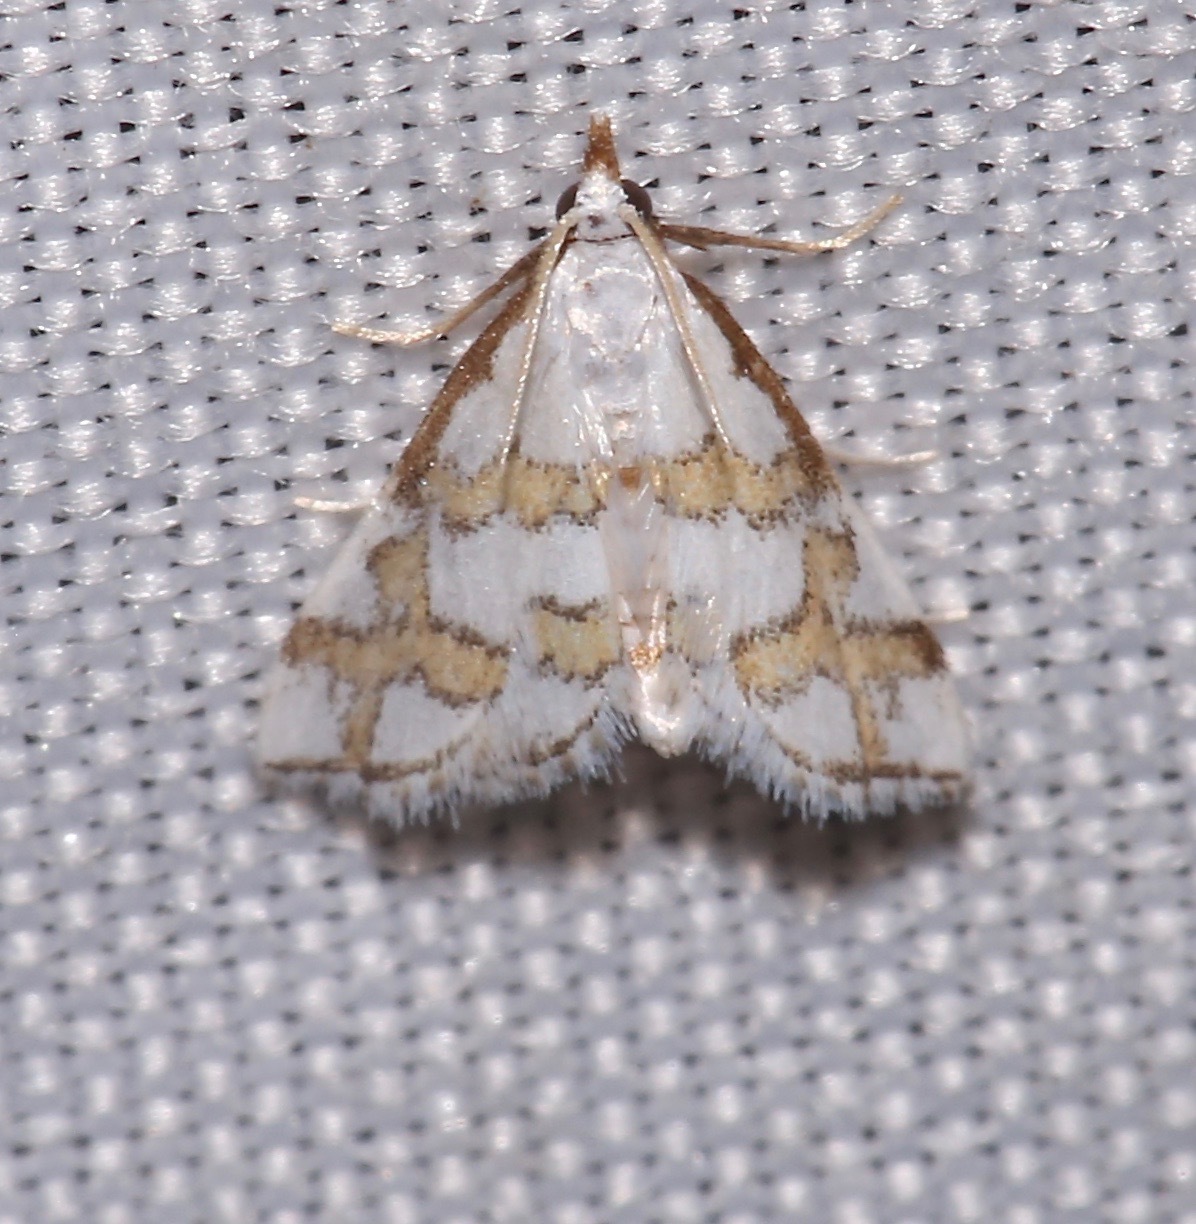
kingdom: Animalia
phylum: Arthropoda
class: Insecta
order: Lepidoptera
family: Crambidae
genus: Leptosteges
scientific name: Leptosteges
